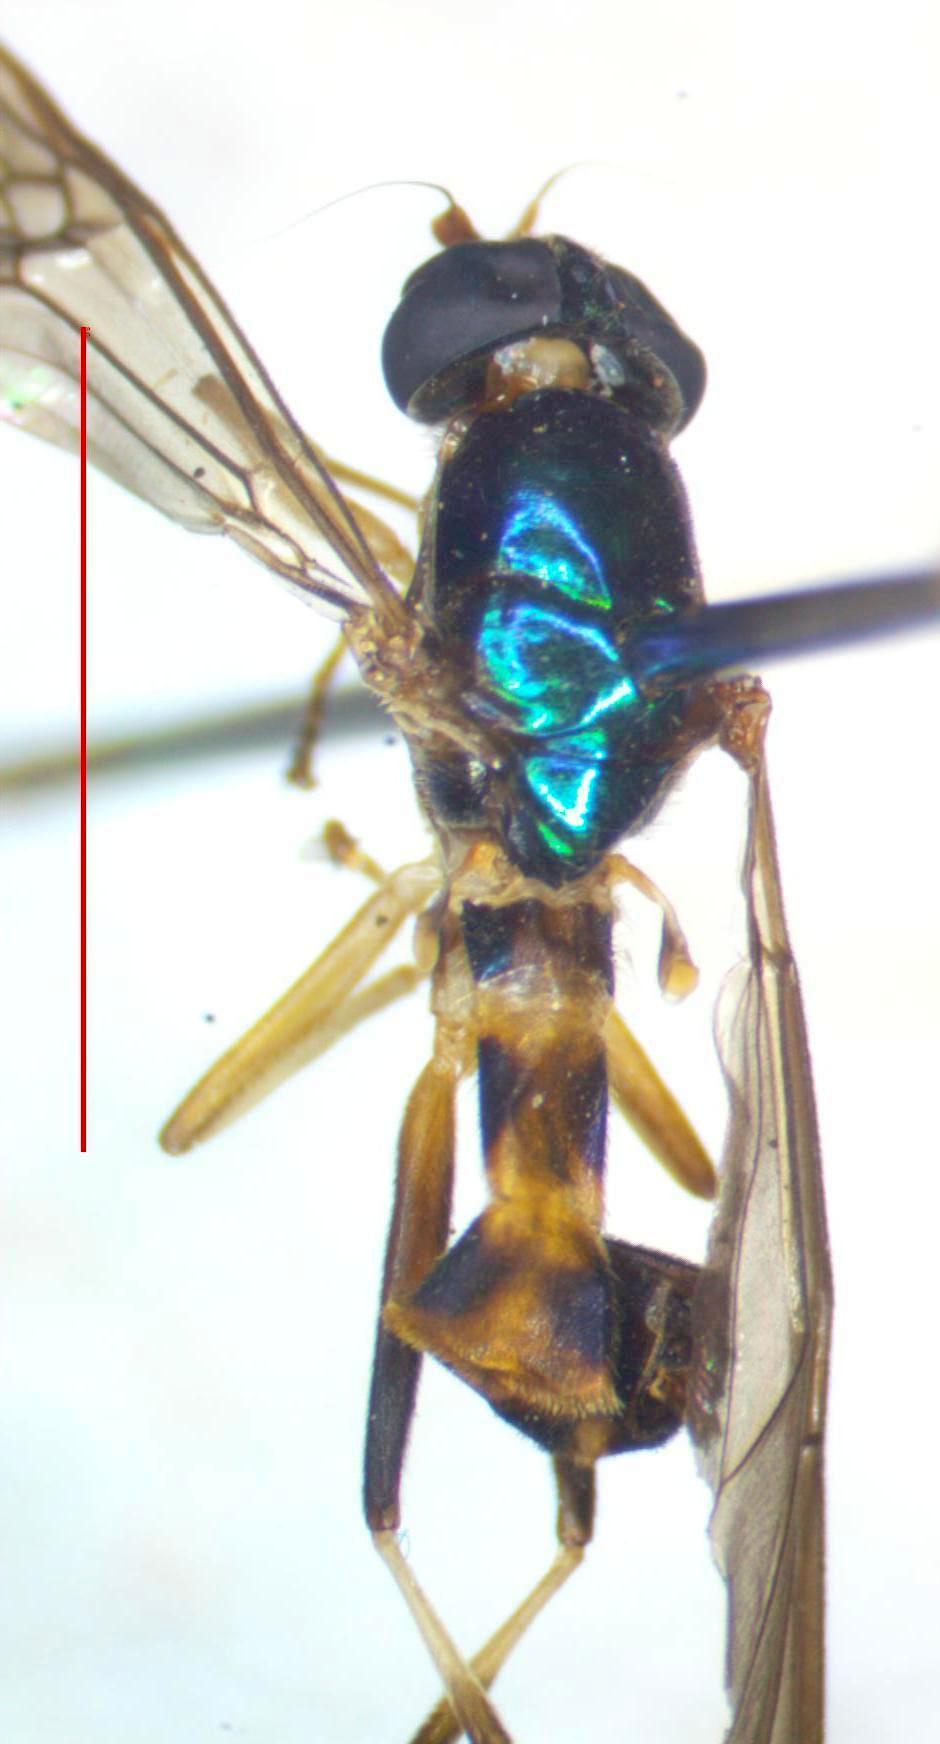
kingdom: Animalia
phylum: Arthropoda
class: Insecta
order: Diptera
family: Stratiomyidae
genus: Merosargus
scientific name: Merosargus cingulatus
